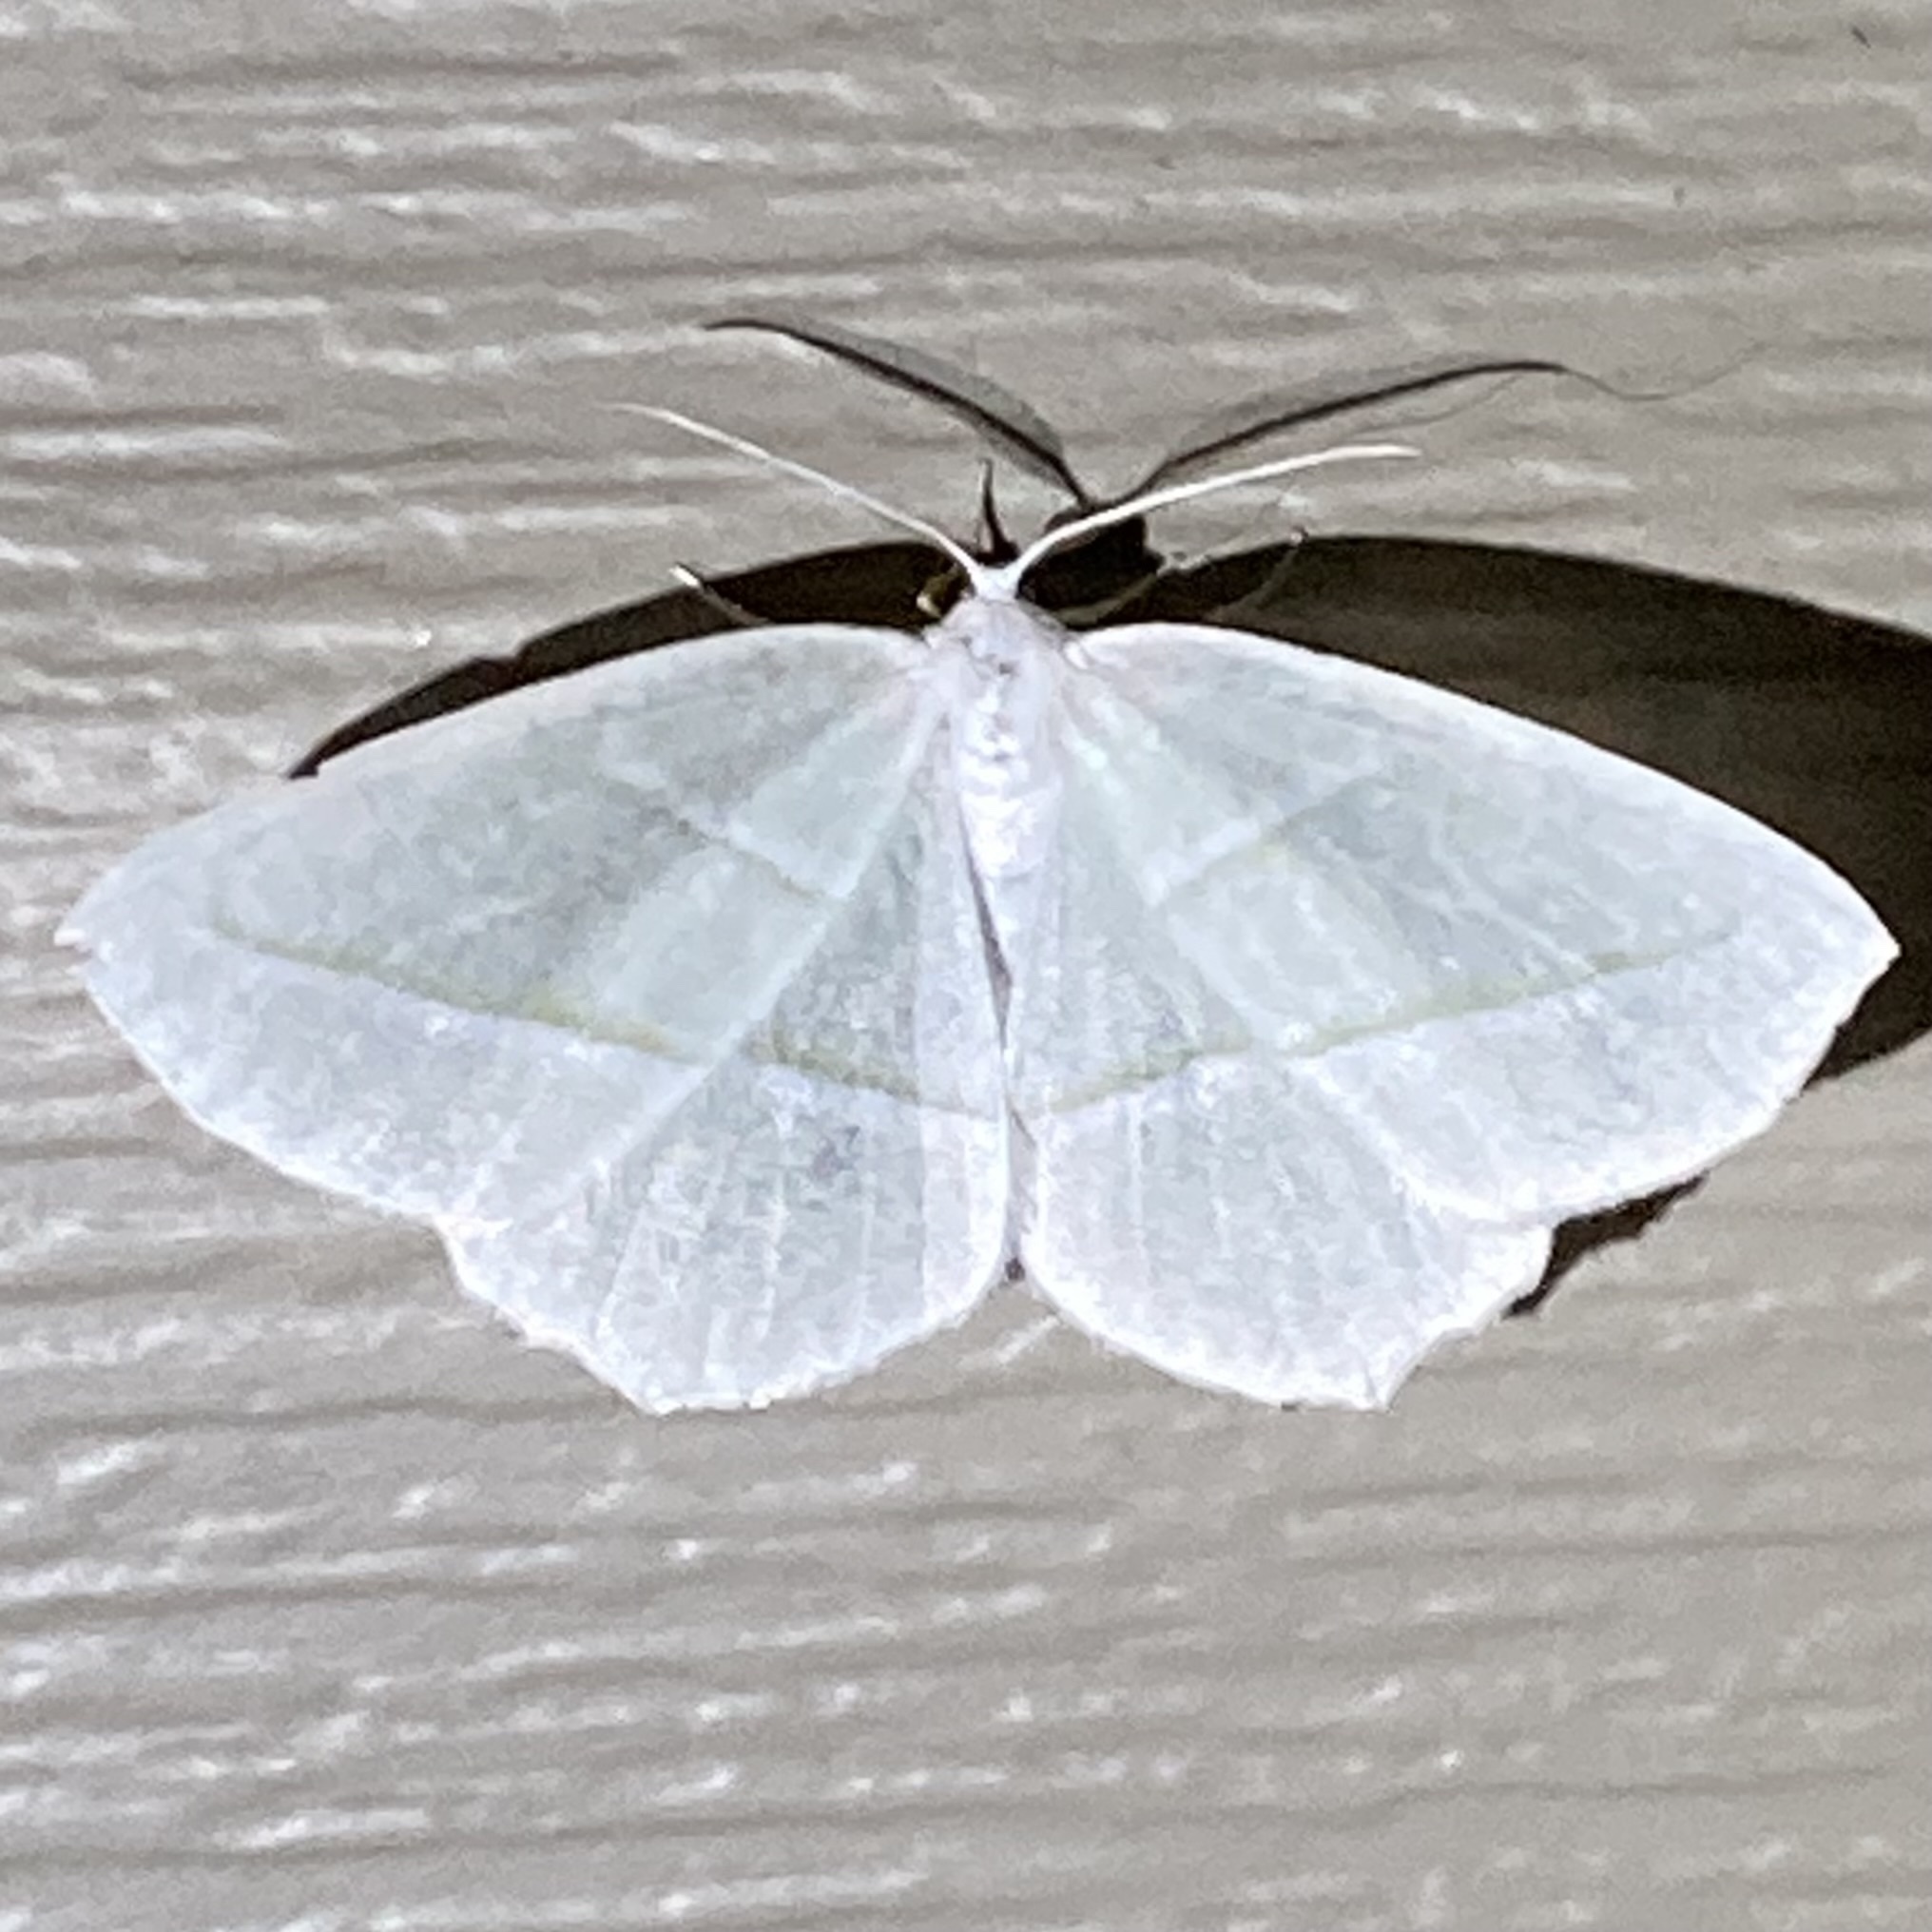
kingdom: Animalia
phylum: Arthropoda
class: Insecta
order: Lepidoptera
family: Geometridae
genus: Campaea
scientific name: Campaea perlata
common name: Fringed looper
